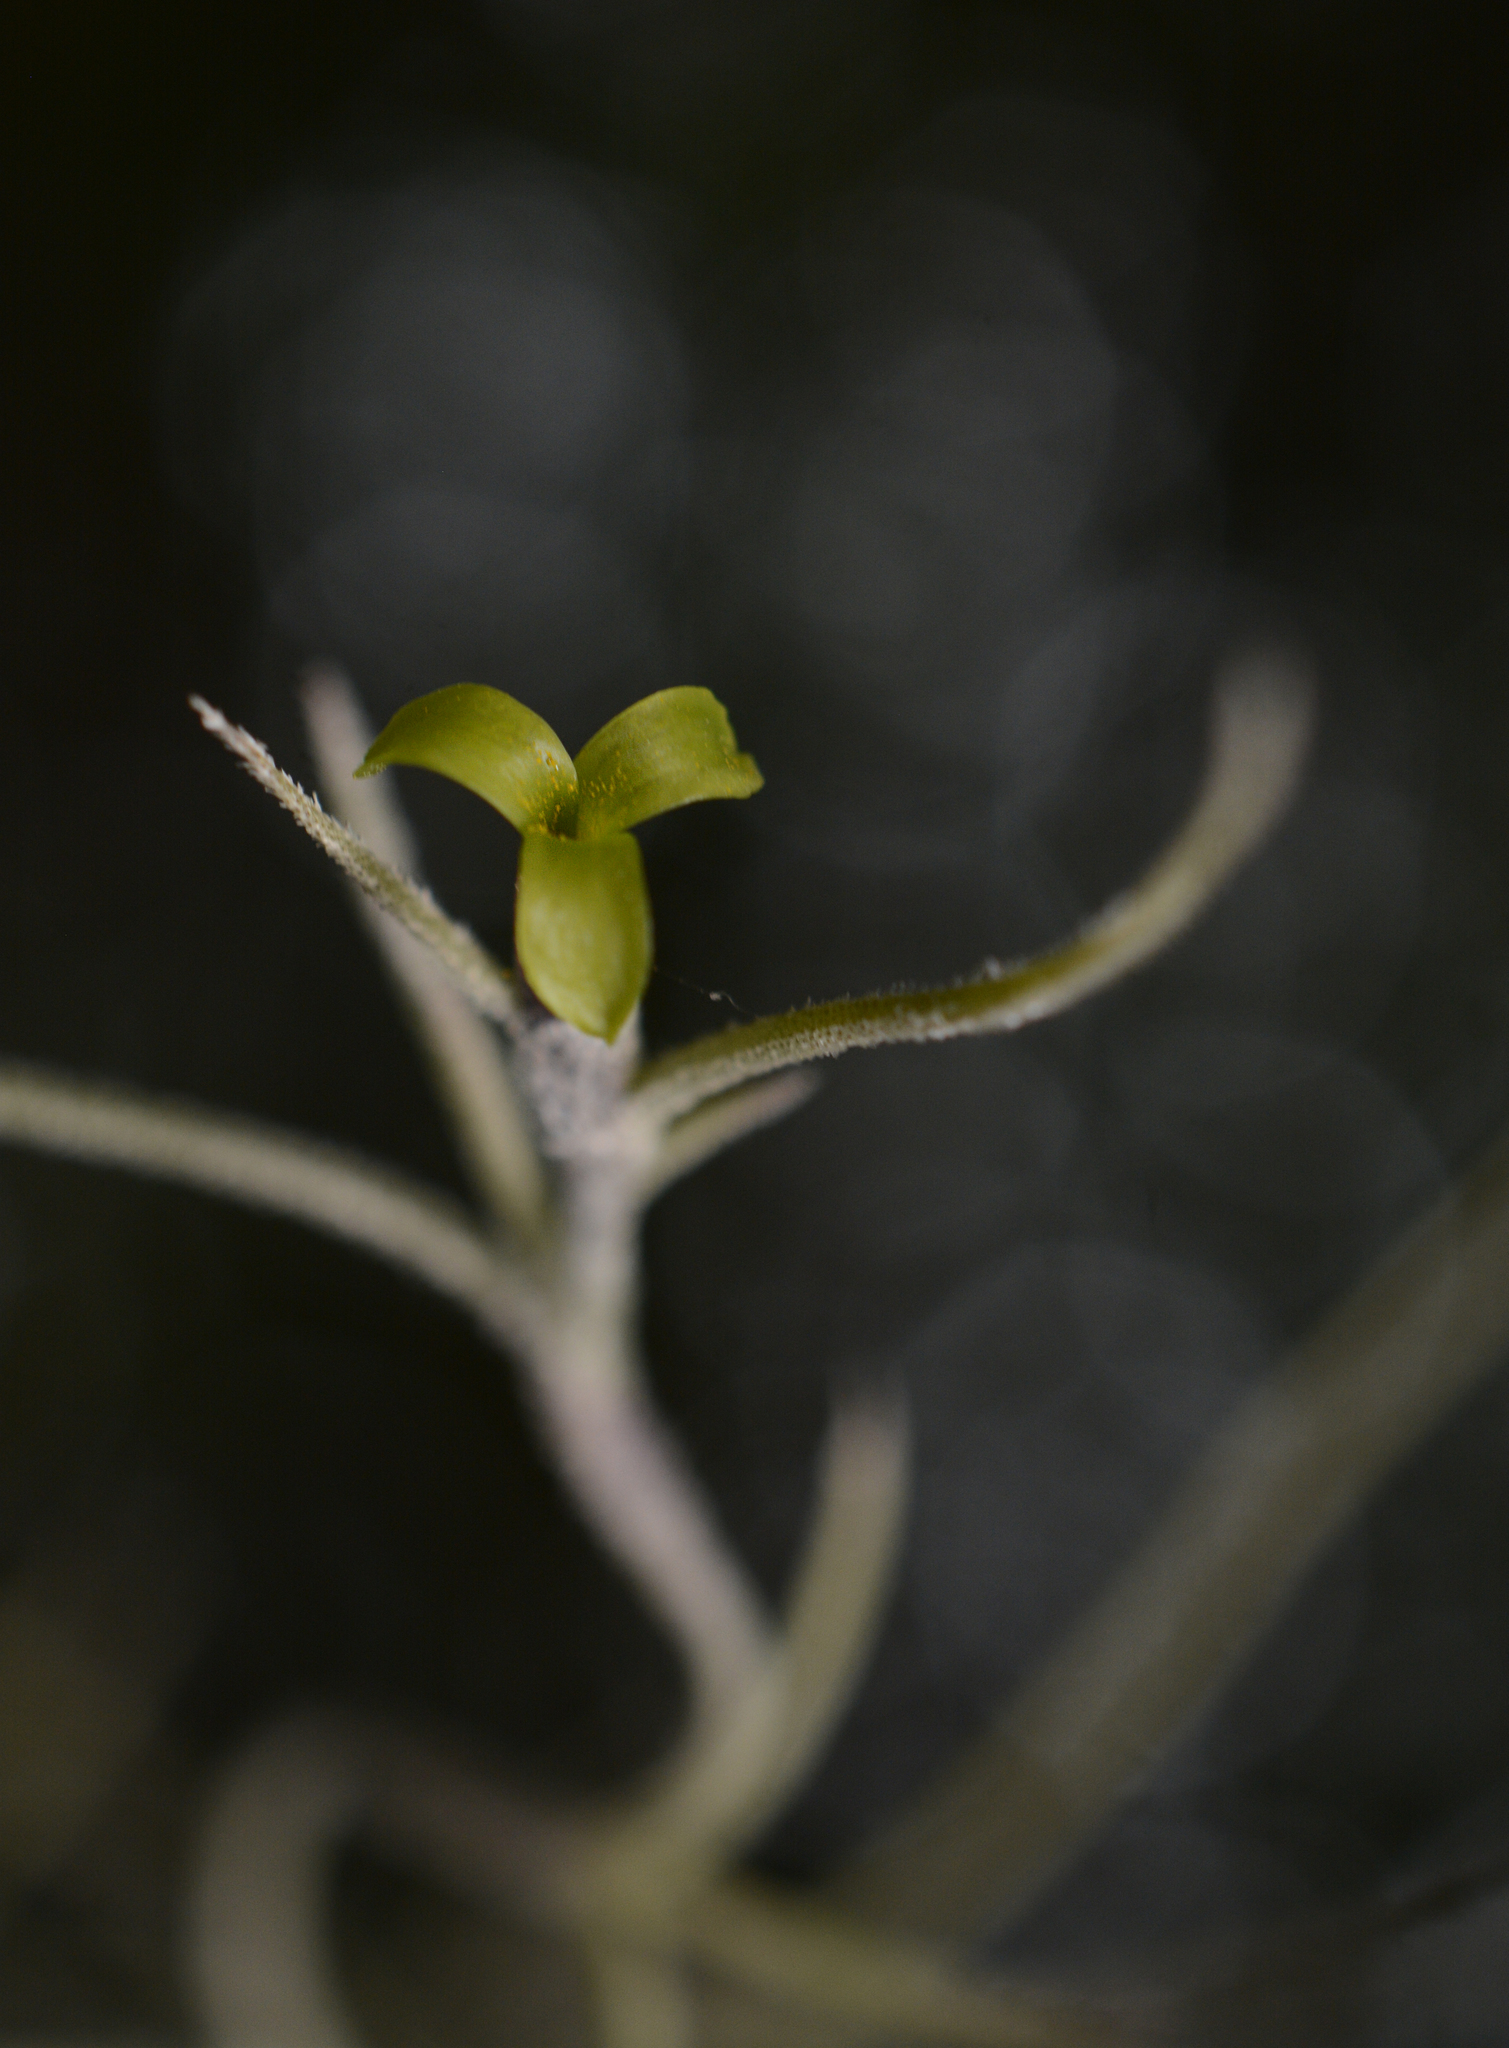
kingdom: Plantae
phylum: Tracheophyta
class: Liliopsida
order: Poales
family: Bromeliaceae
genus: Tillandsia
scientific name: Tillandsia usneoides
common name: Spanish moss
